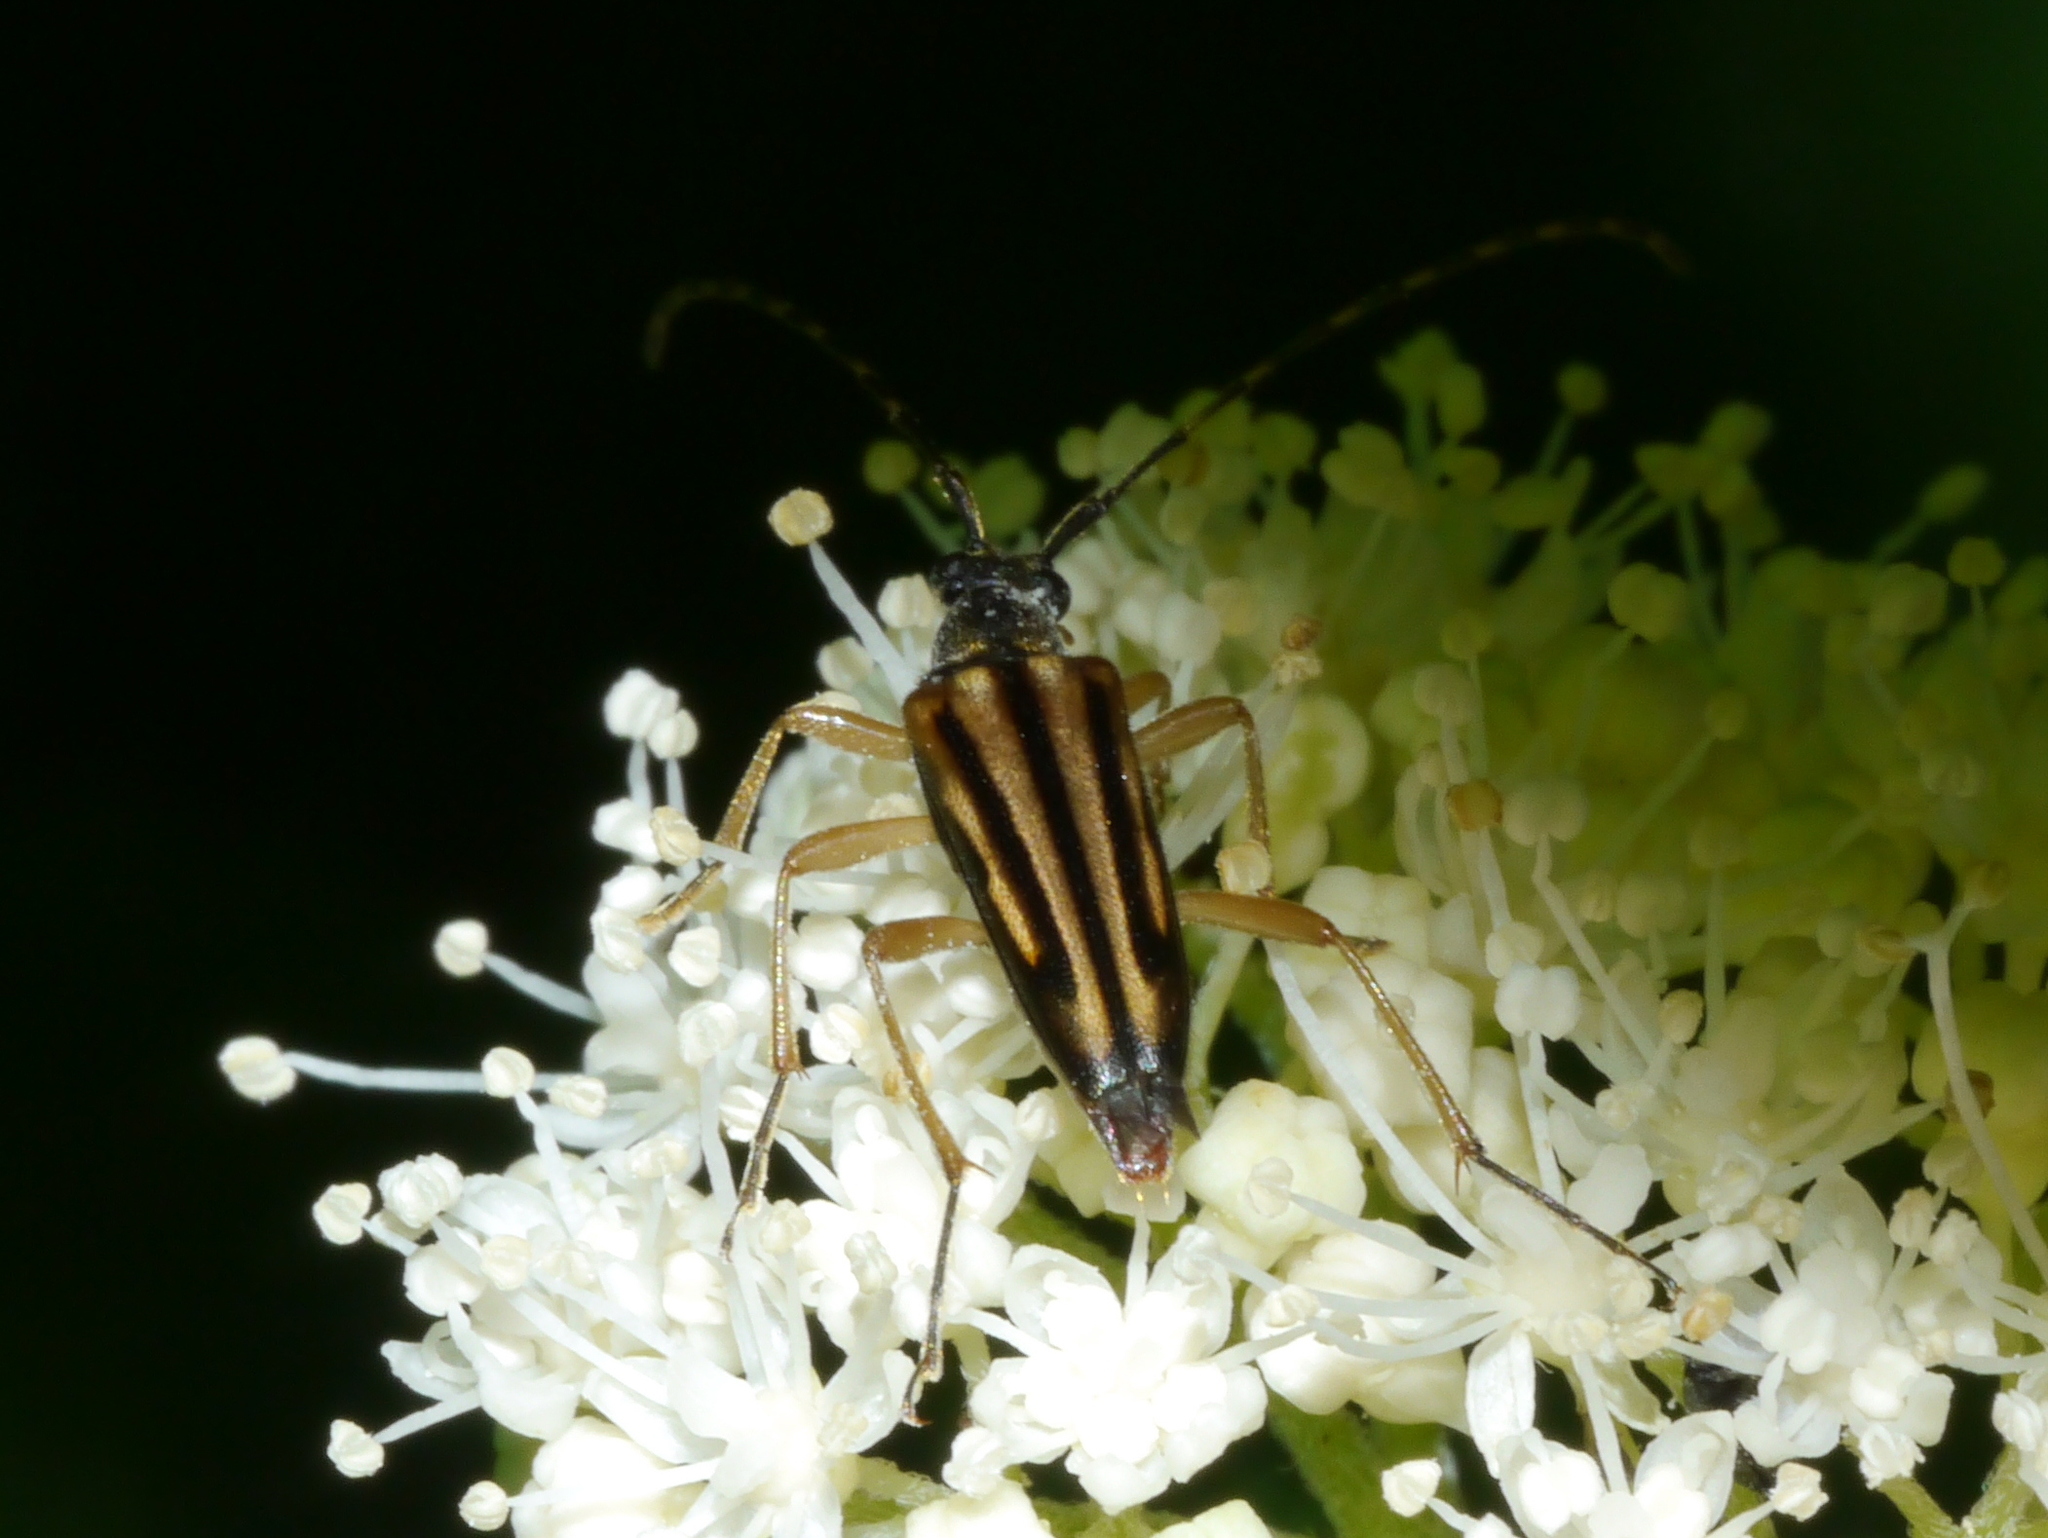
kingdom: Animalia
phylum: Arthropoda
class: Insecta
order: Coleoptera
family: Cerambycidae
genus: Analeptura
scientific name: Analeptura lineola
